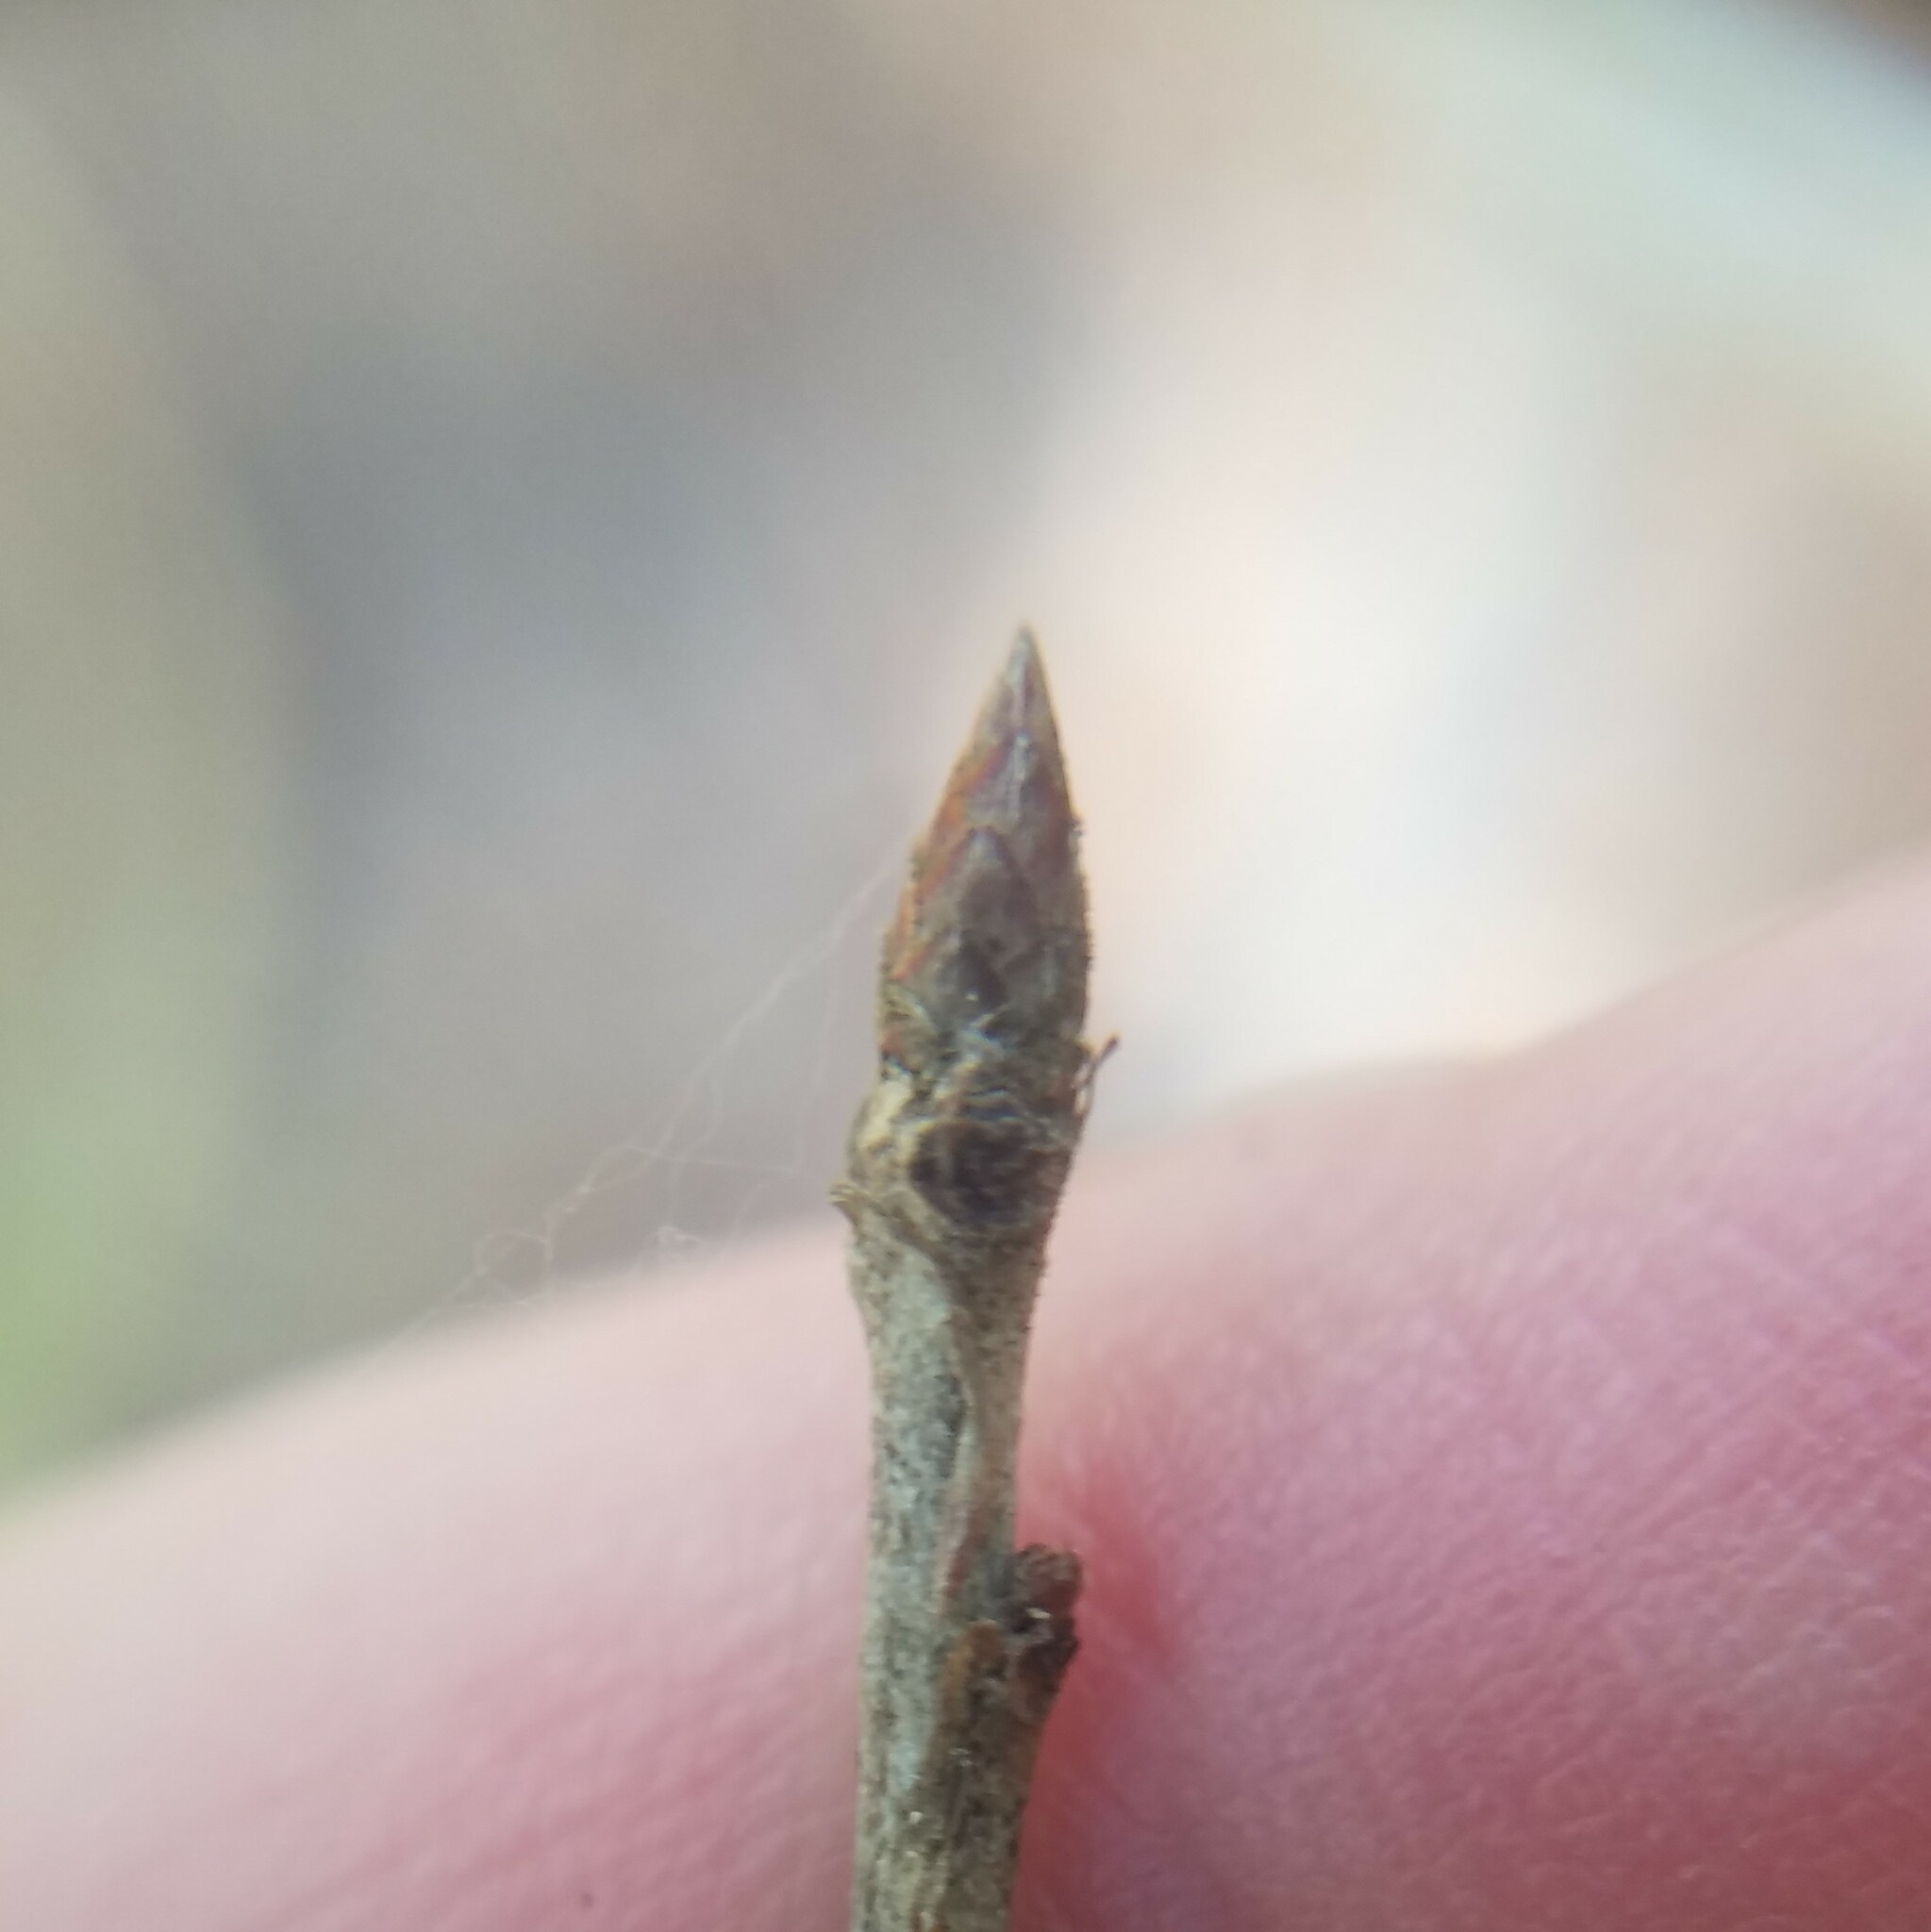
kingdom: Plantae
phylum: Tracheophyta
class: Magnoliopsida
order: Fagales
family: Fagaceae
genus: Quercus
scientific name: Quercus incana
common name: Bluejack oak
